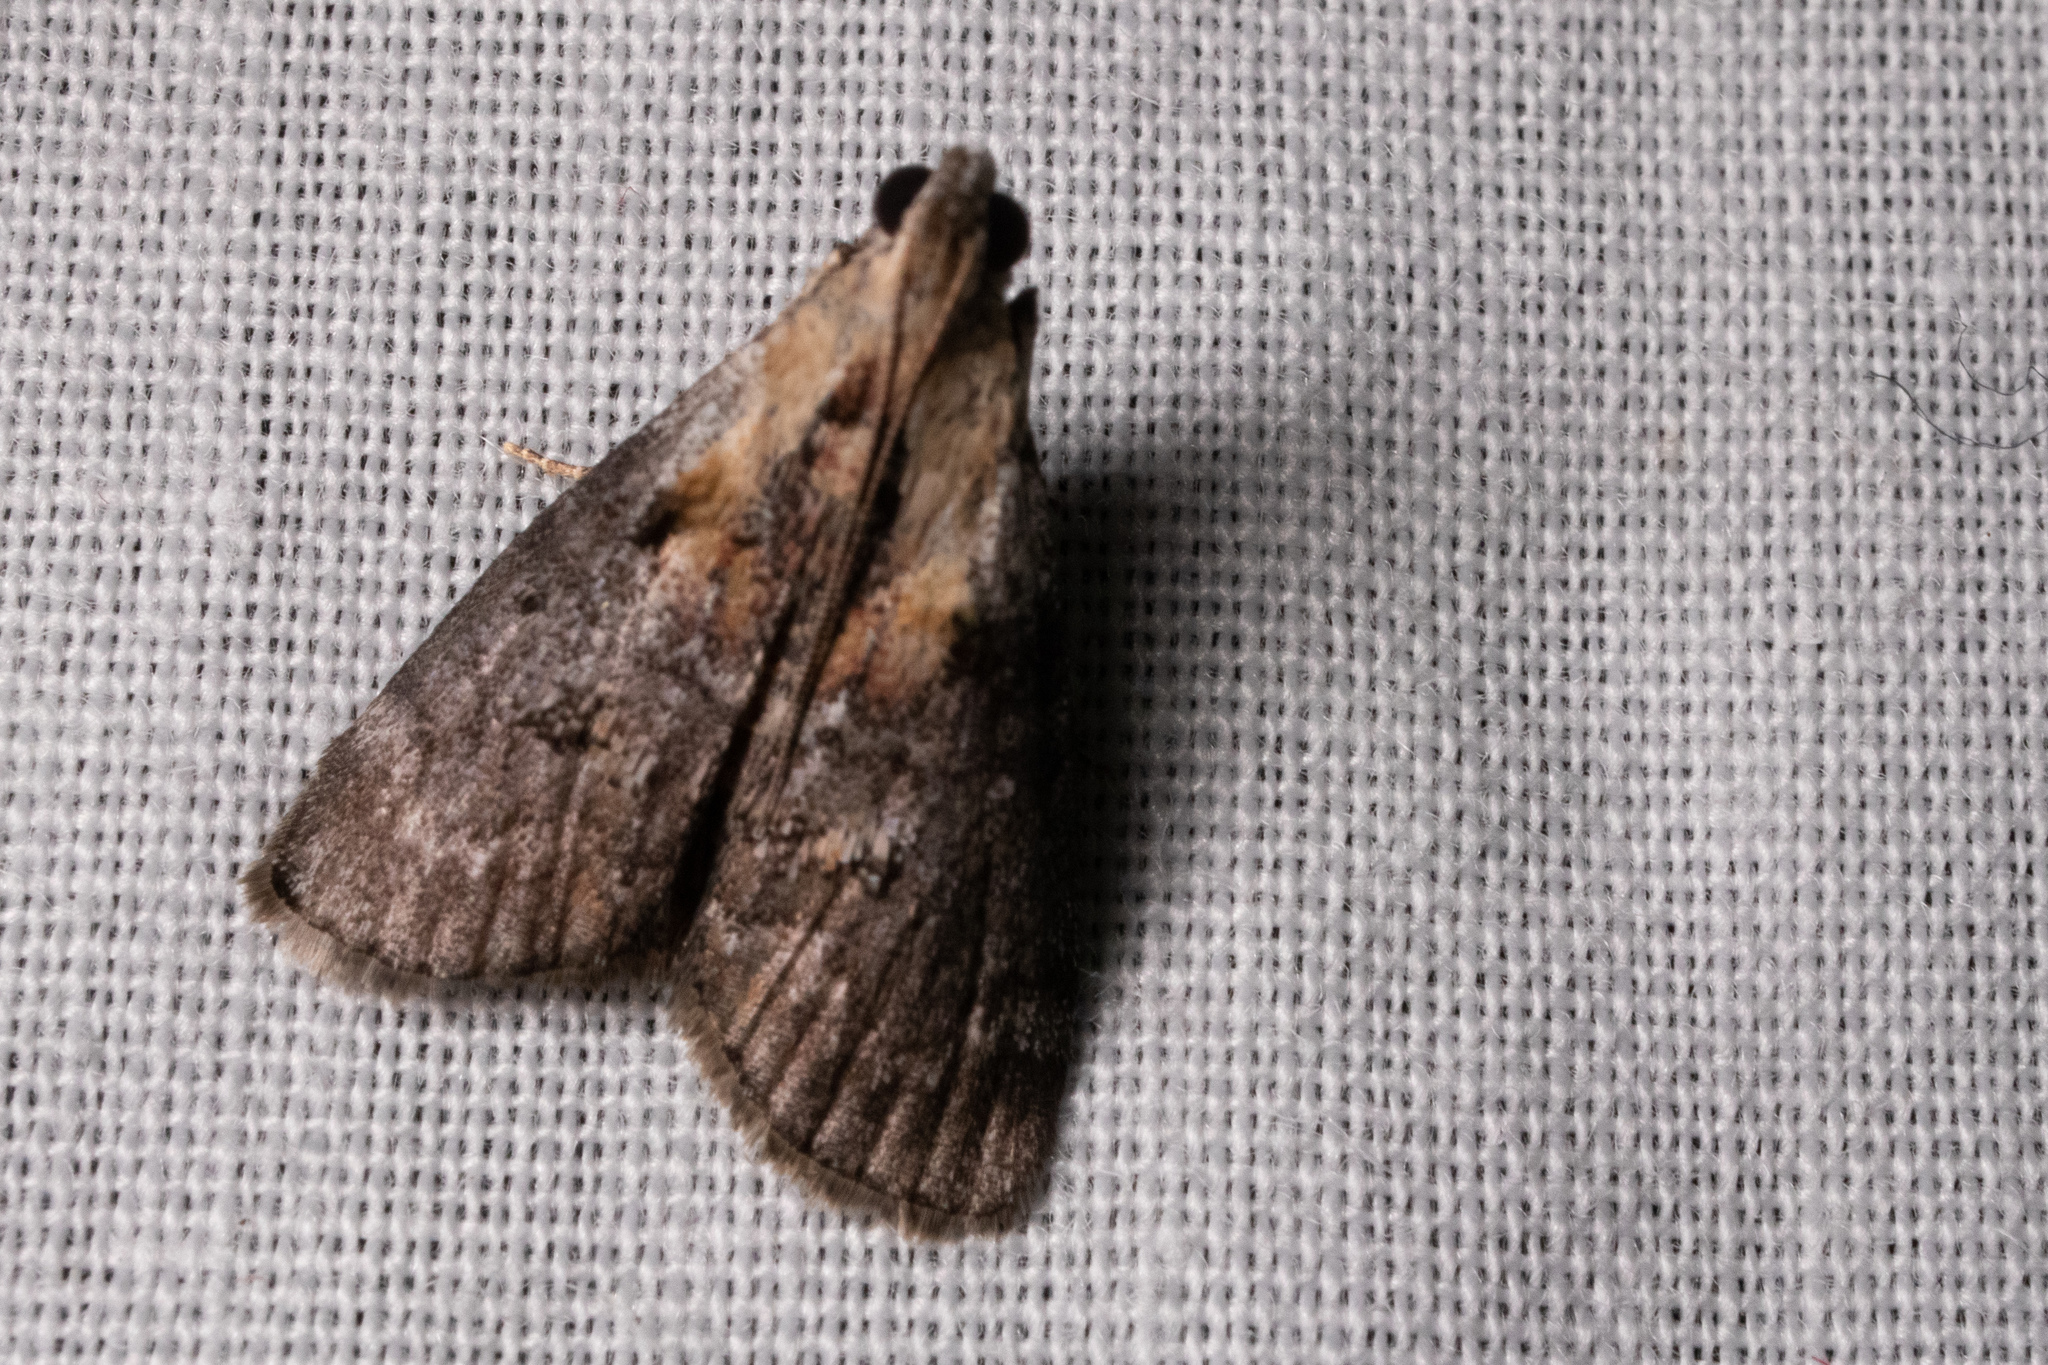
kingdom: Animalia
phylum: Arthropoda
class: Insecta
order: Lepidoptera
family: Pyralidae
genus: Pococera
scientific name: Pococera expandens
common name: Striped oak webworm moth
